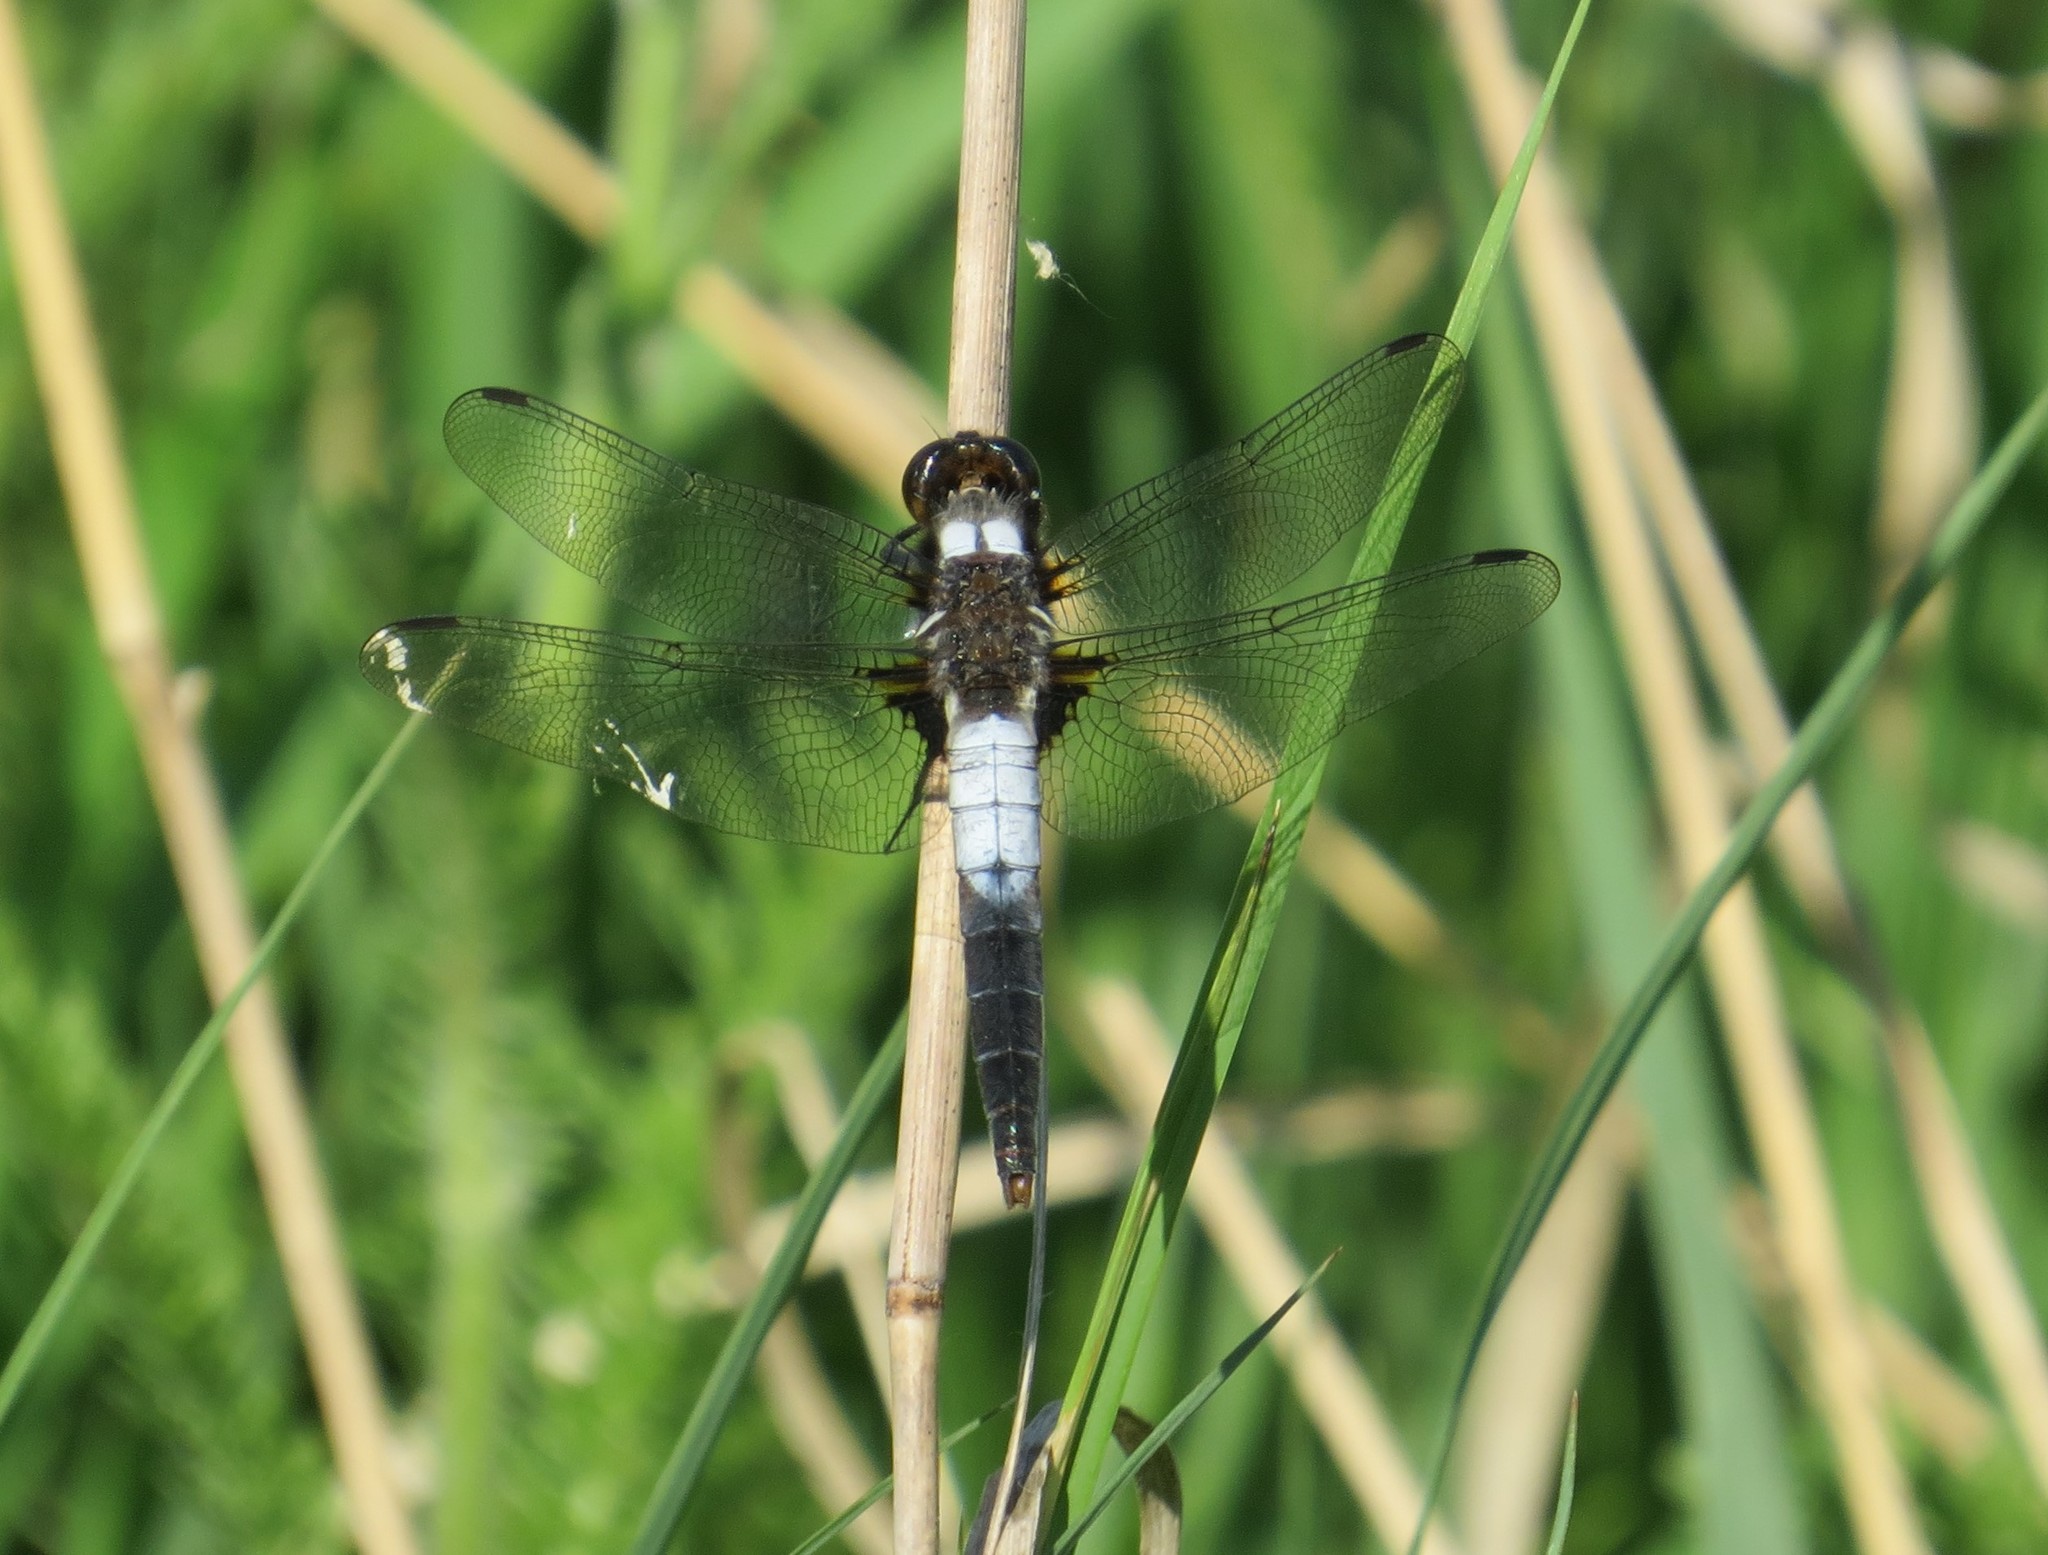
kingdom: Animalia
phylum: Arthropoda
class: Insecta
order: Odonata
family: Libellulidae
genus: Ladona
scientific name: Ladona julia
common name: Chalk-fronted corporal
